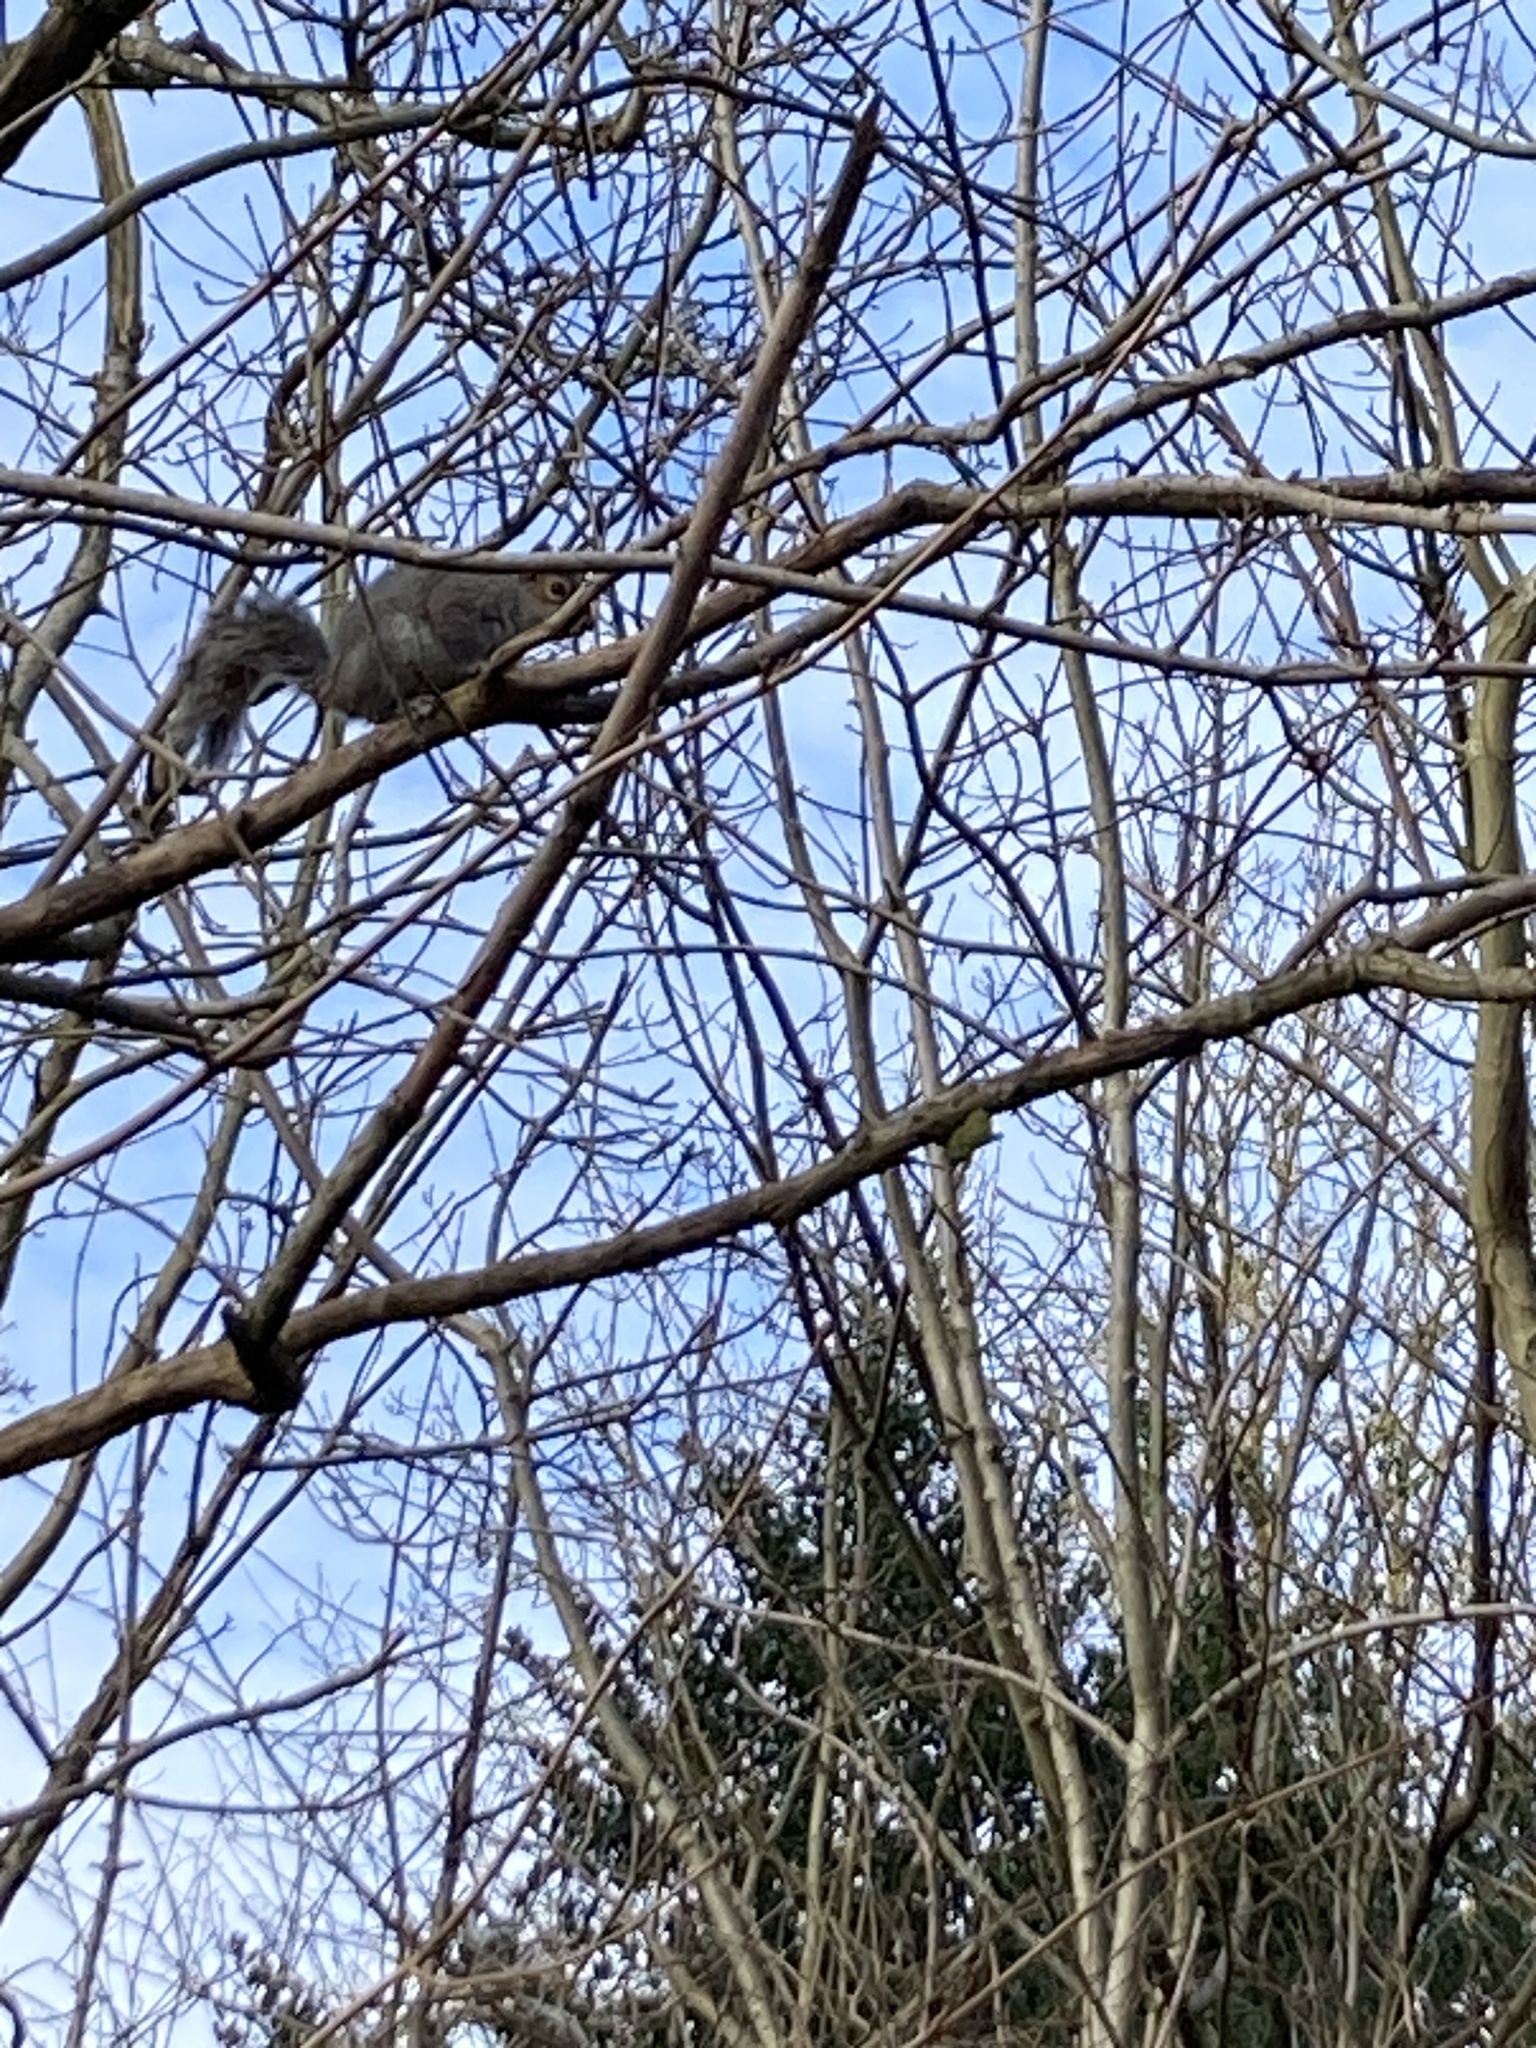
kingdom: Animalia
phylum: Chordata
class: Mammalia
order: Rodentia
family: Sciuridae
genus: Sciurus
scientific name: Sciurus carolinensis
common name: Eastern gray squirrel
